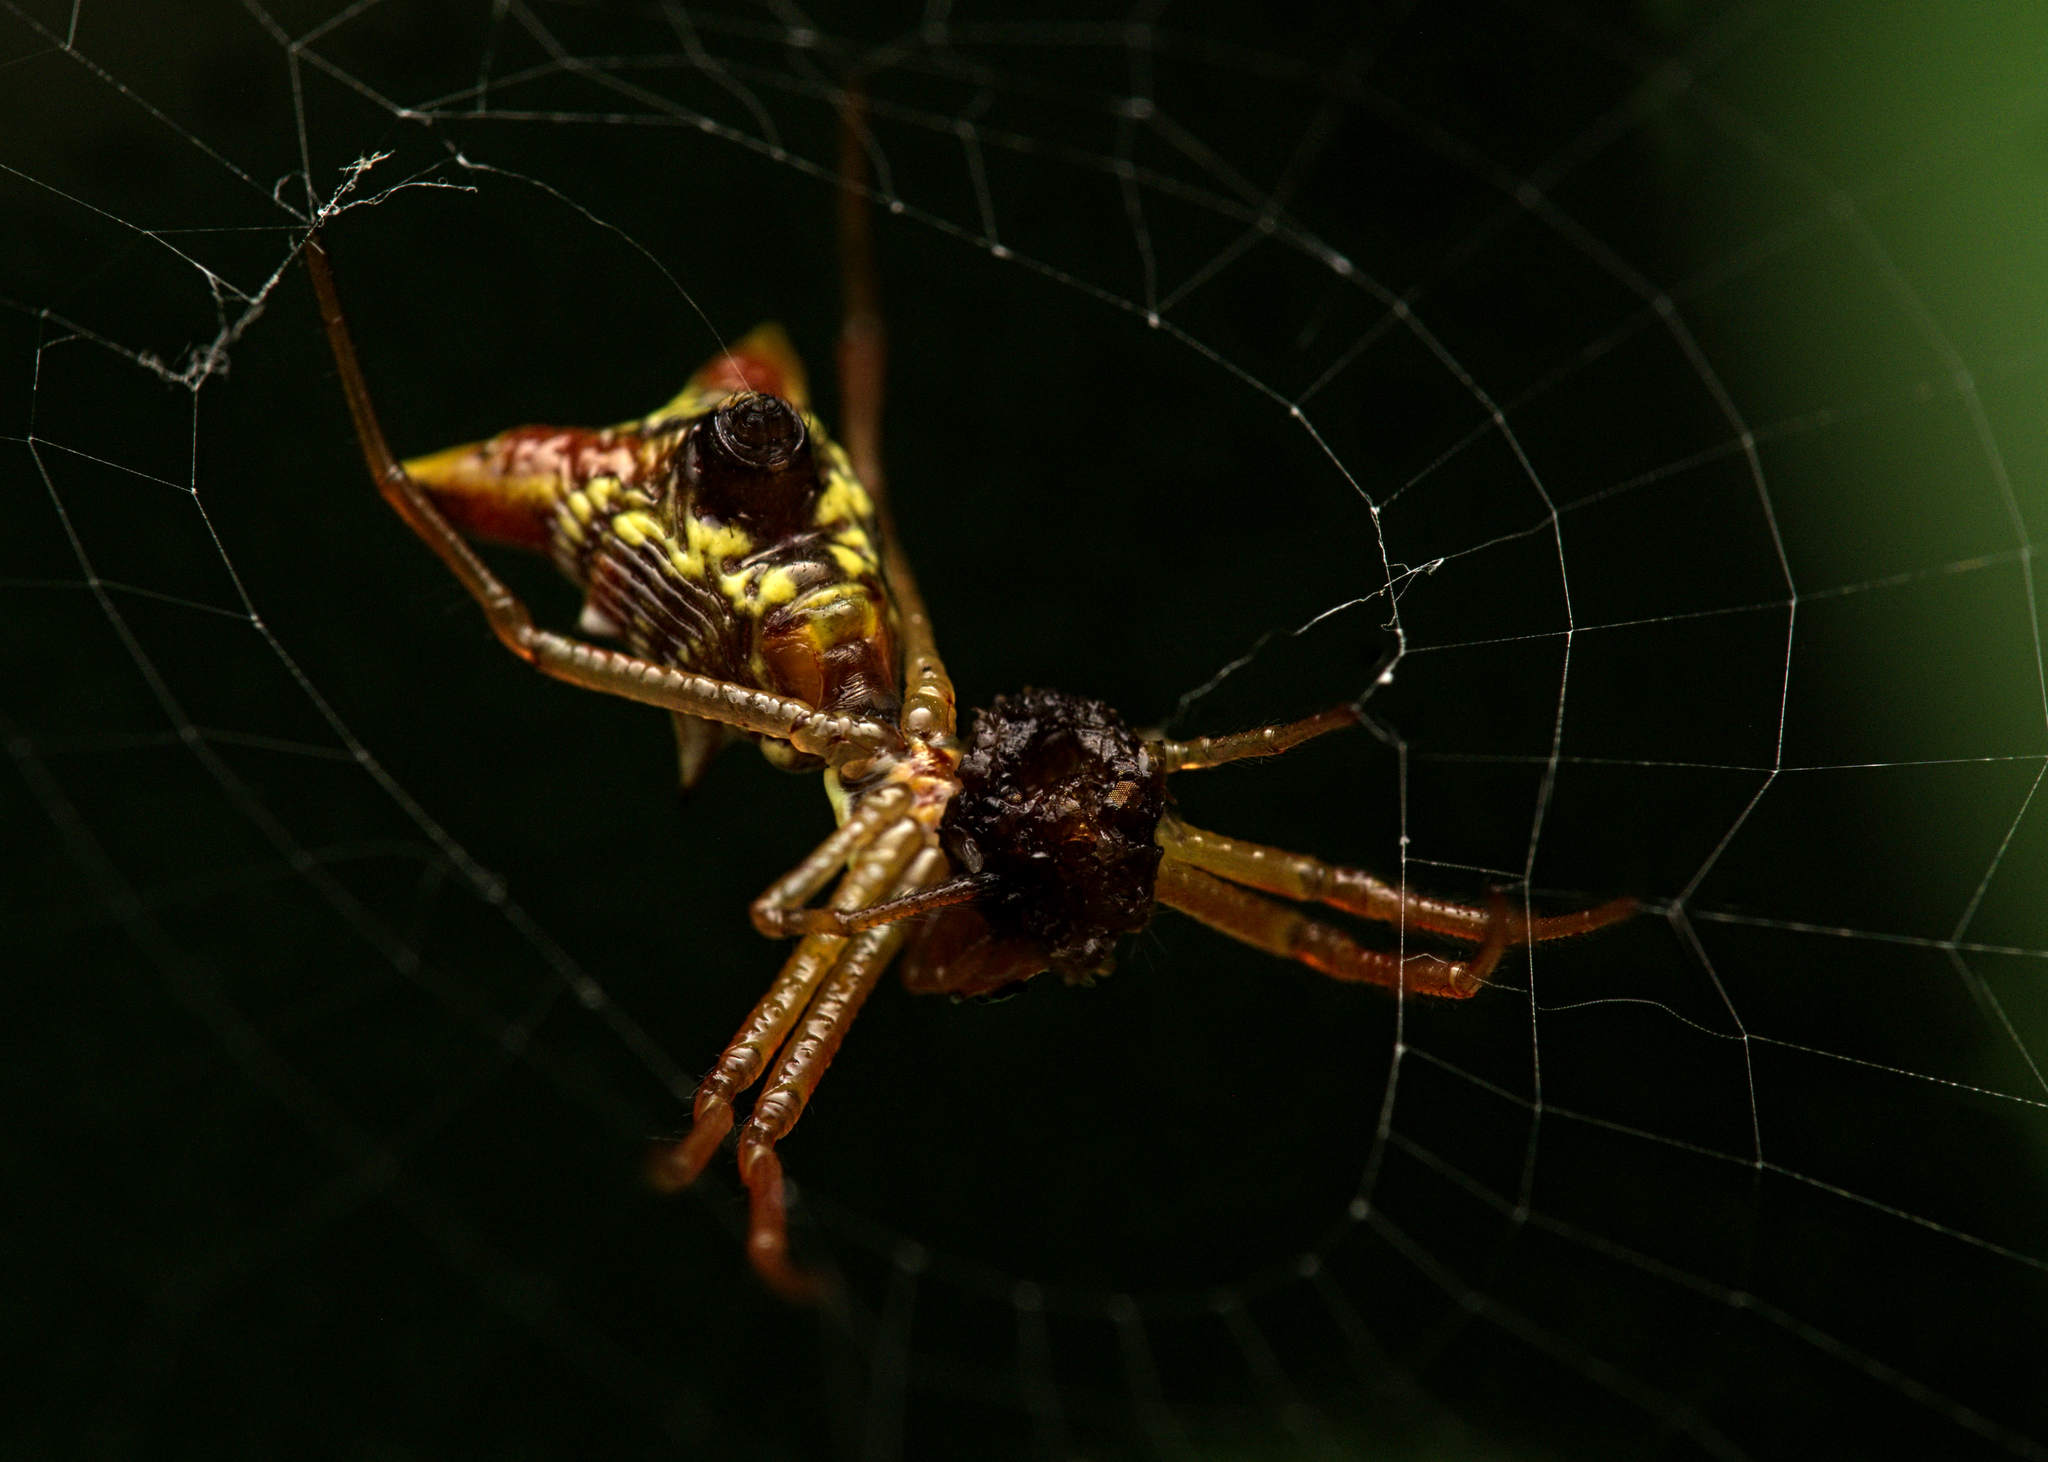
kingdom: Animalia
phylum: Arthropoda
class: Arachnida
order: Araneae
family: Araneidae
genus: Micrathena
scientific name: Micrathena sagittata
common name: Orb weavers
